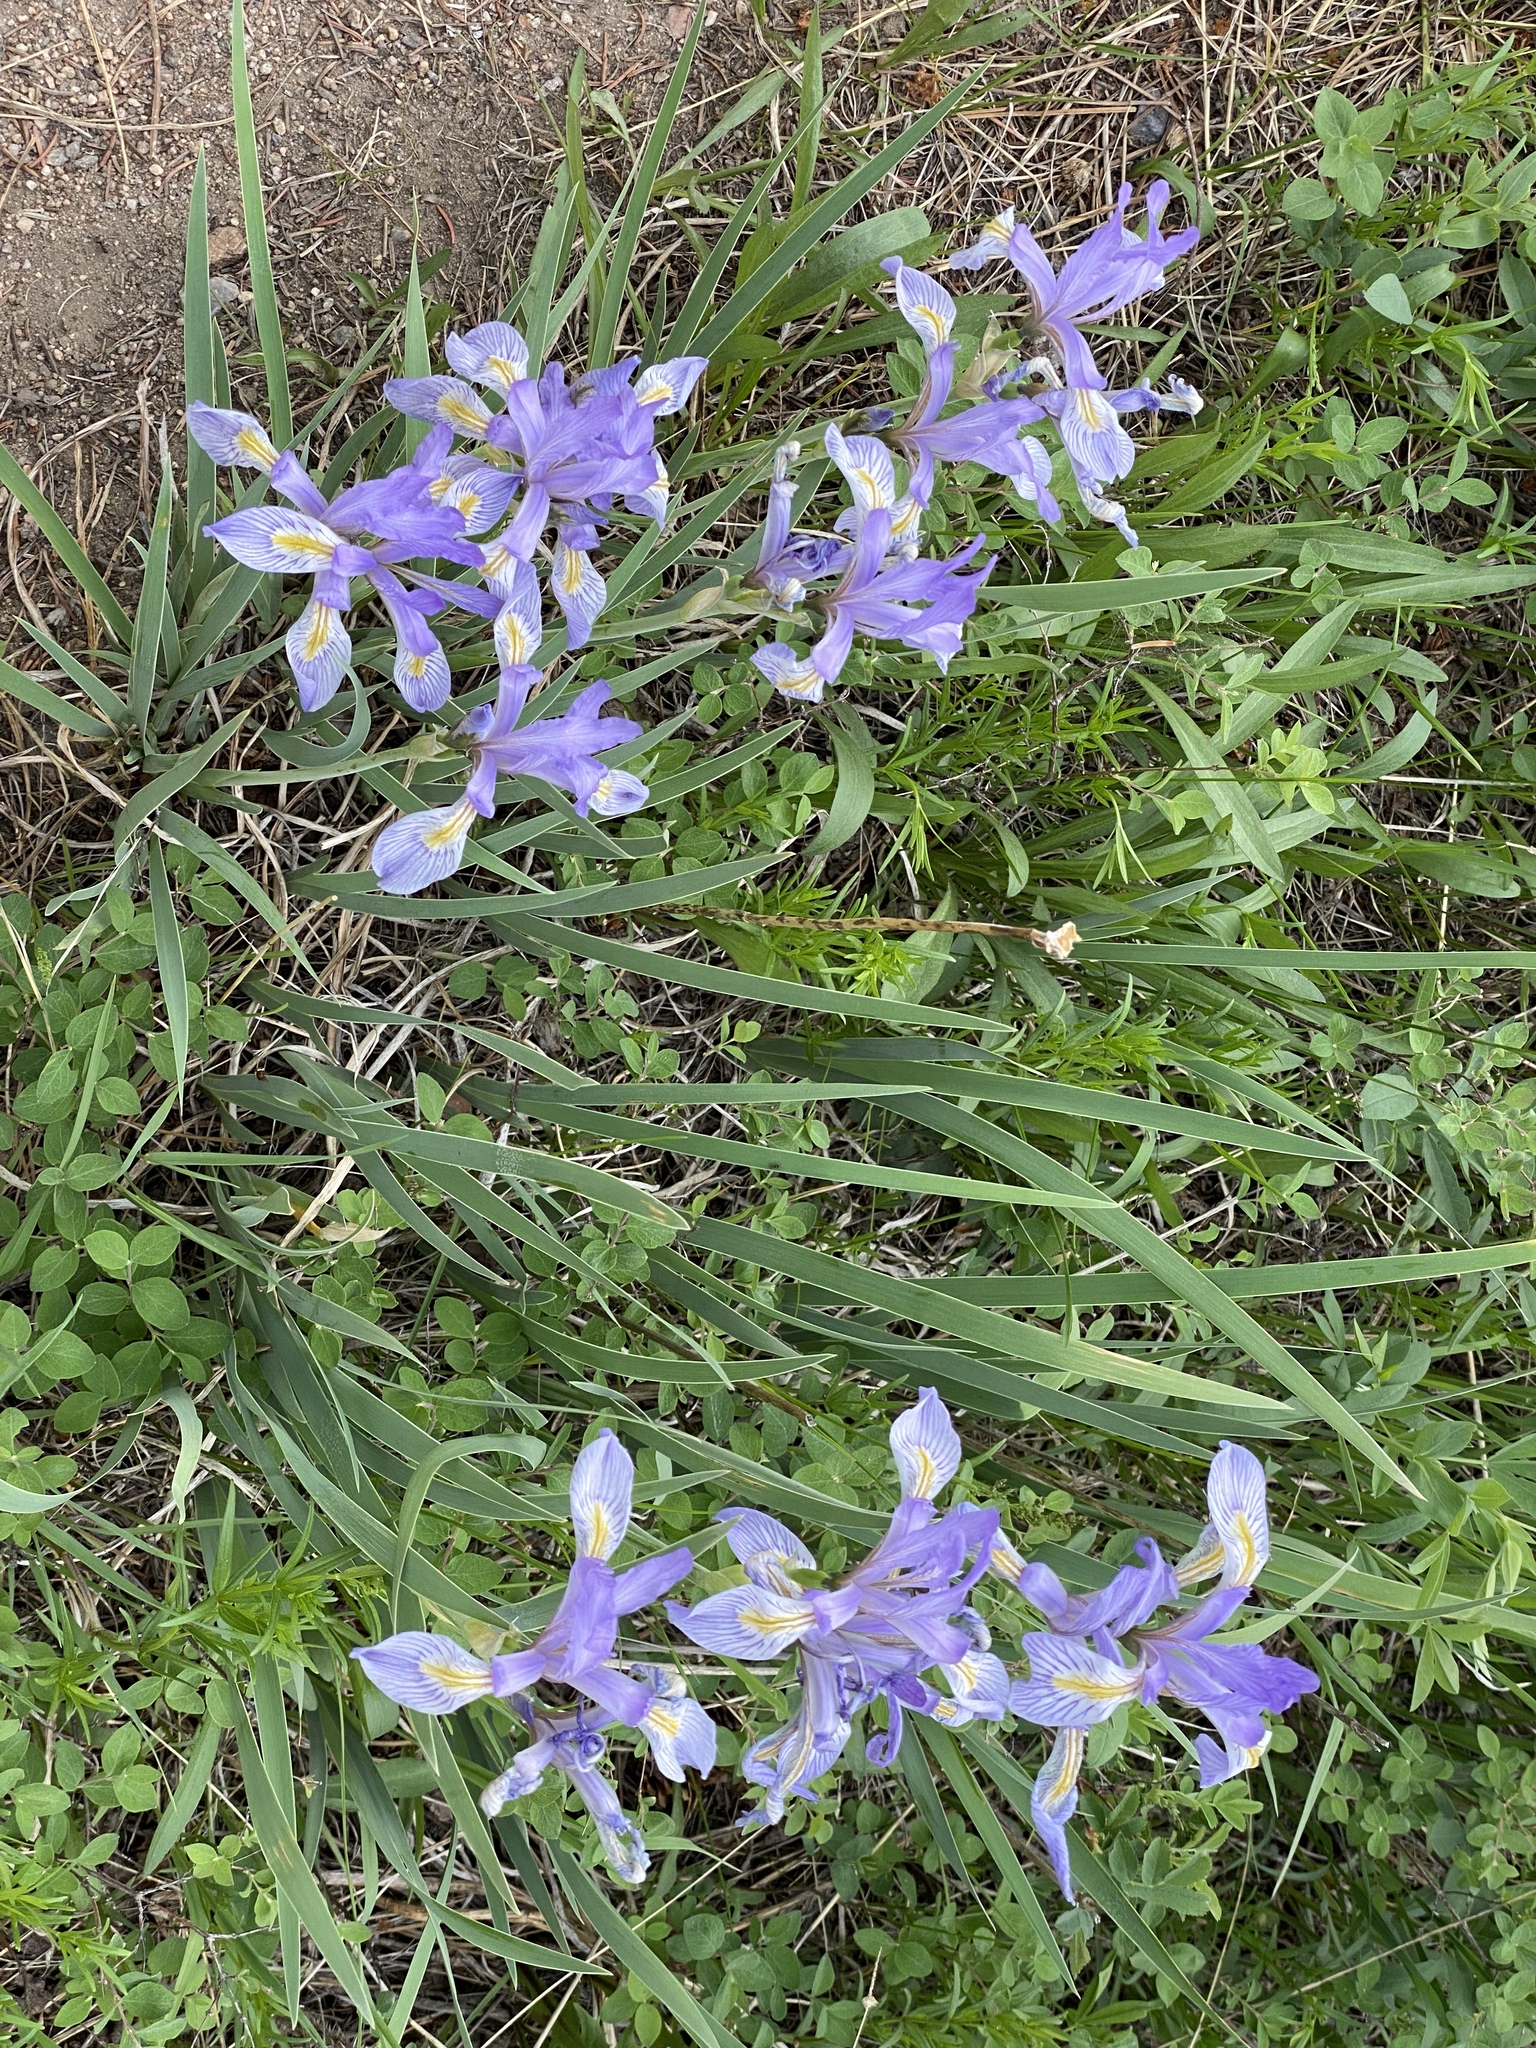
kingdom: Plantae
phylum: Tracheophyta
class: Liliopsida
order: Asparagales
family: Iridaceae
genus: Iris
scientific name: Iris missouriensis
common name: Rocky mountain iris
